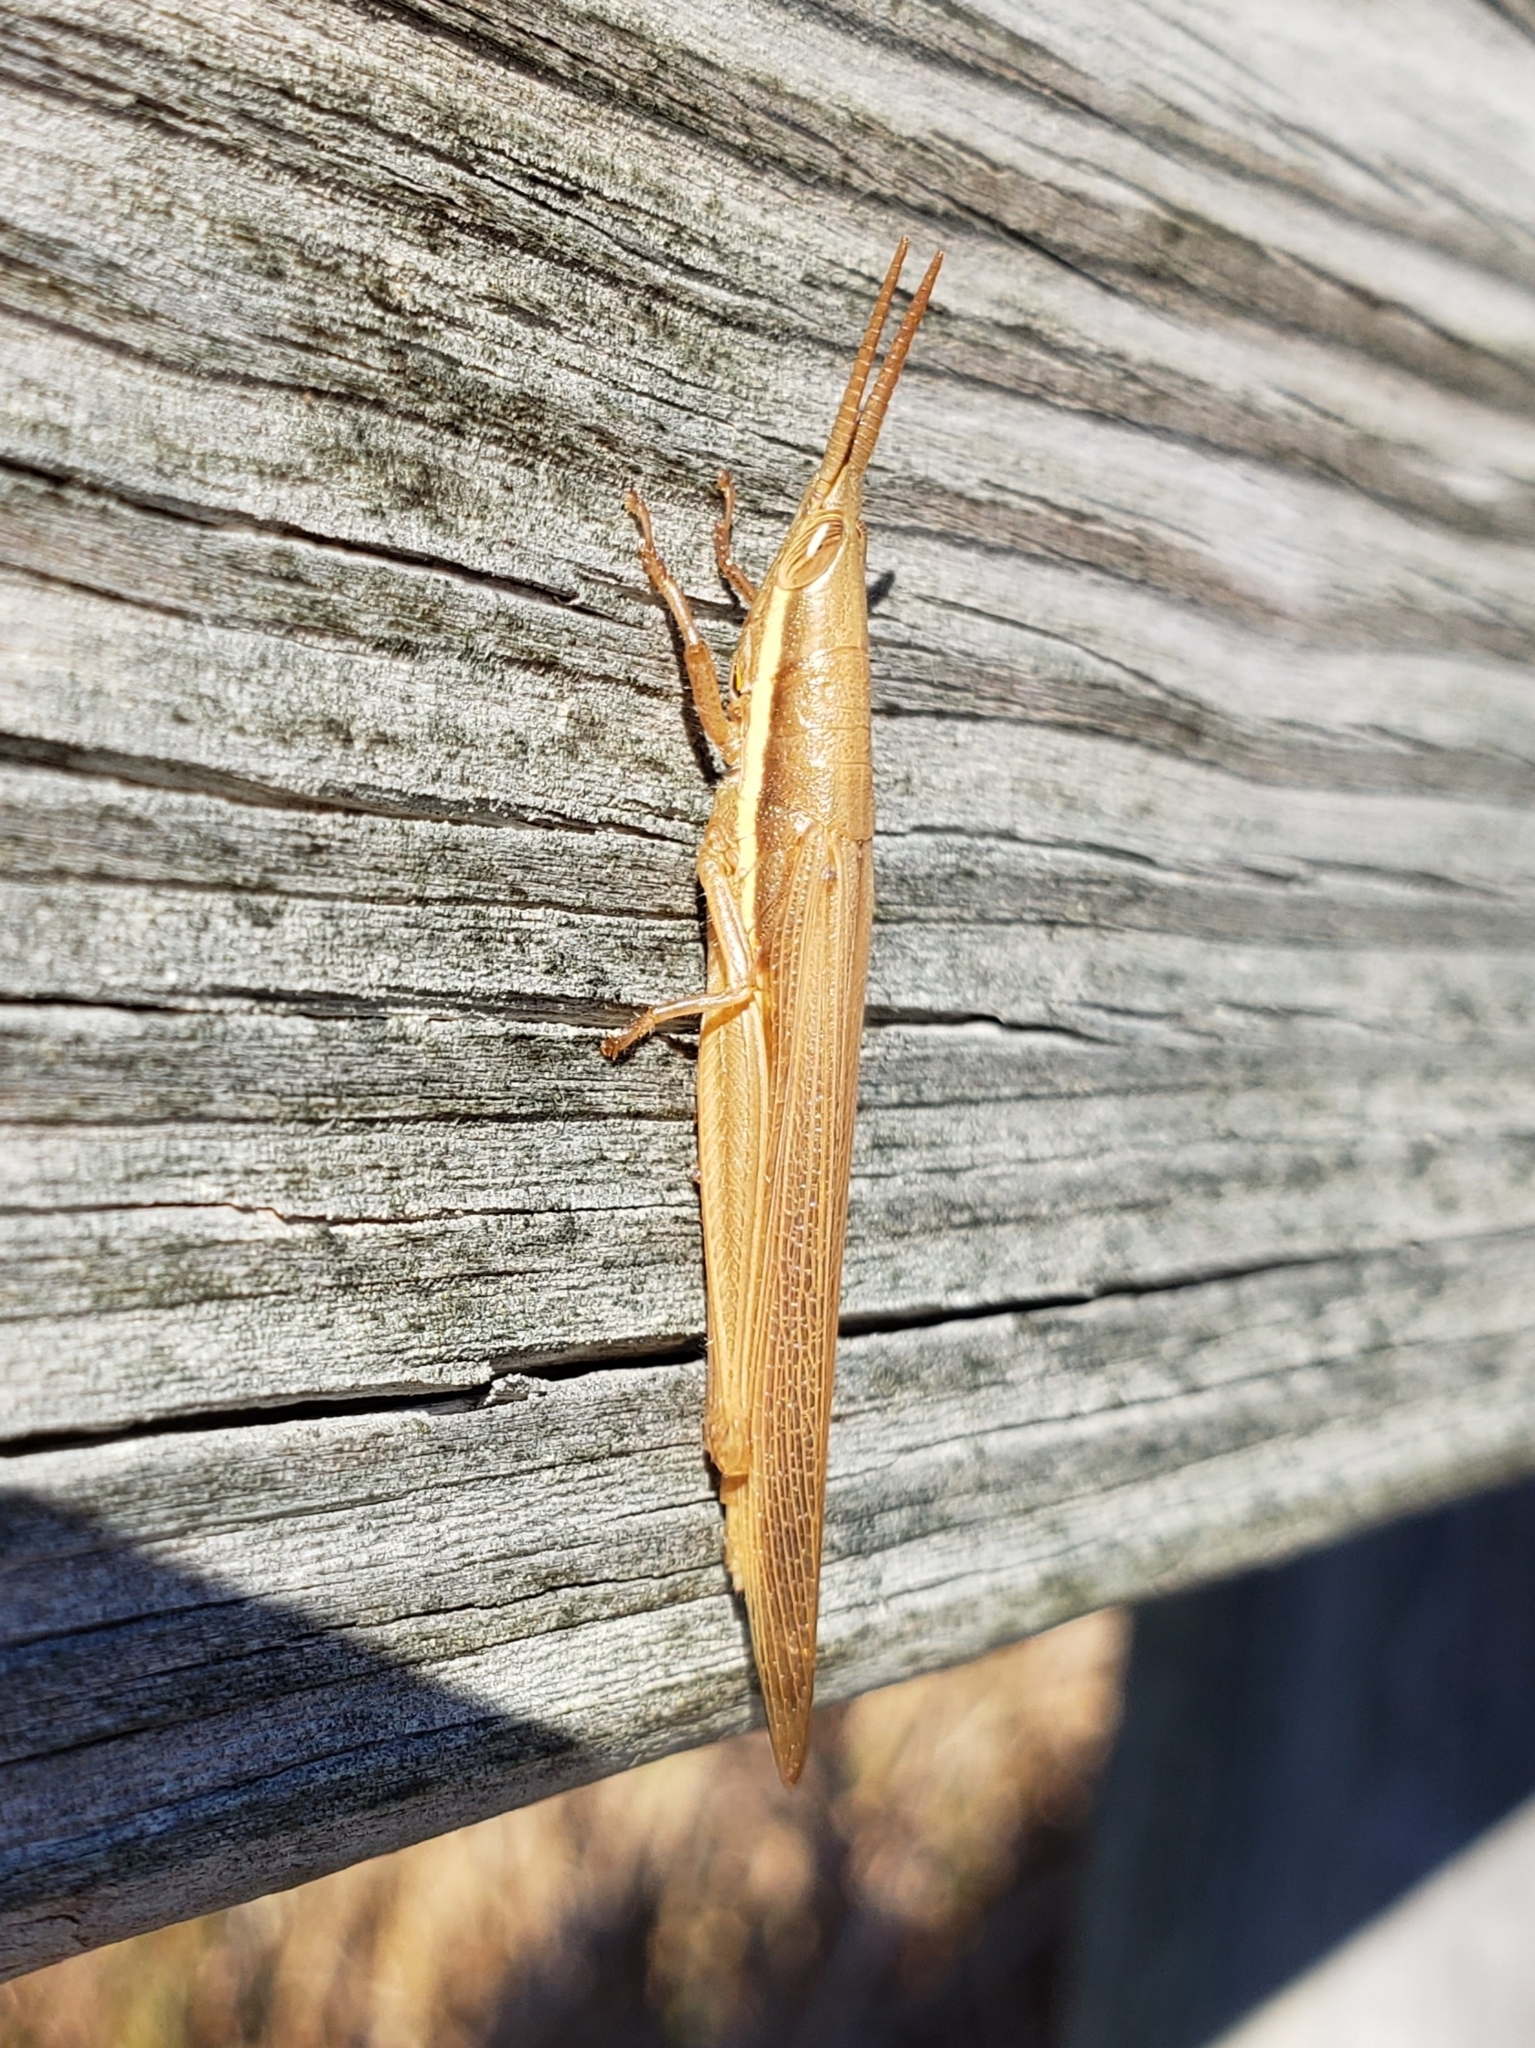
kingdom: Animalia
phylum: Arthropoda
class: Insecta
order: Orthoptera
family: Acrididae
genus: Leptysma
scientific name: Leptysma marginicollis
